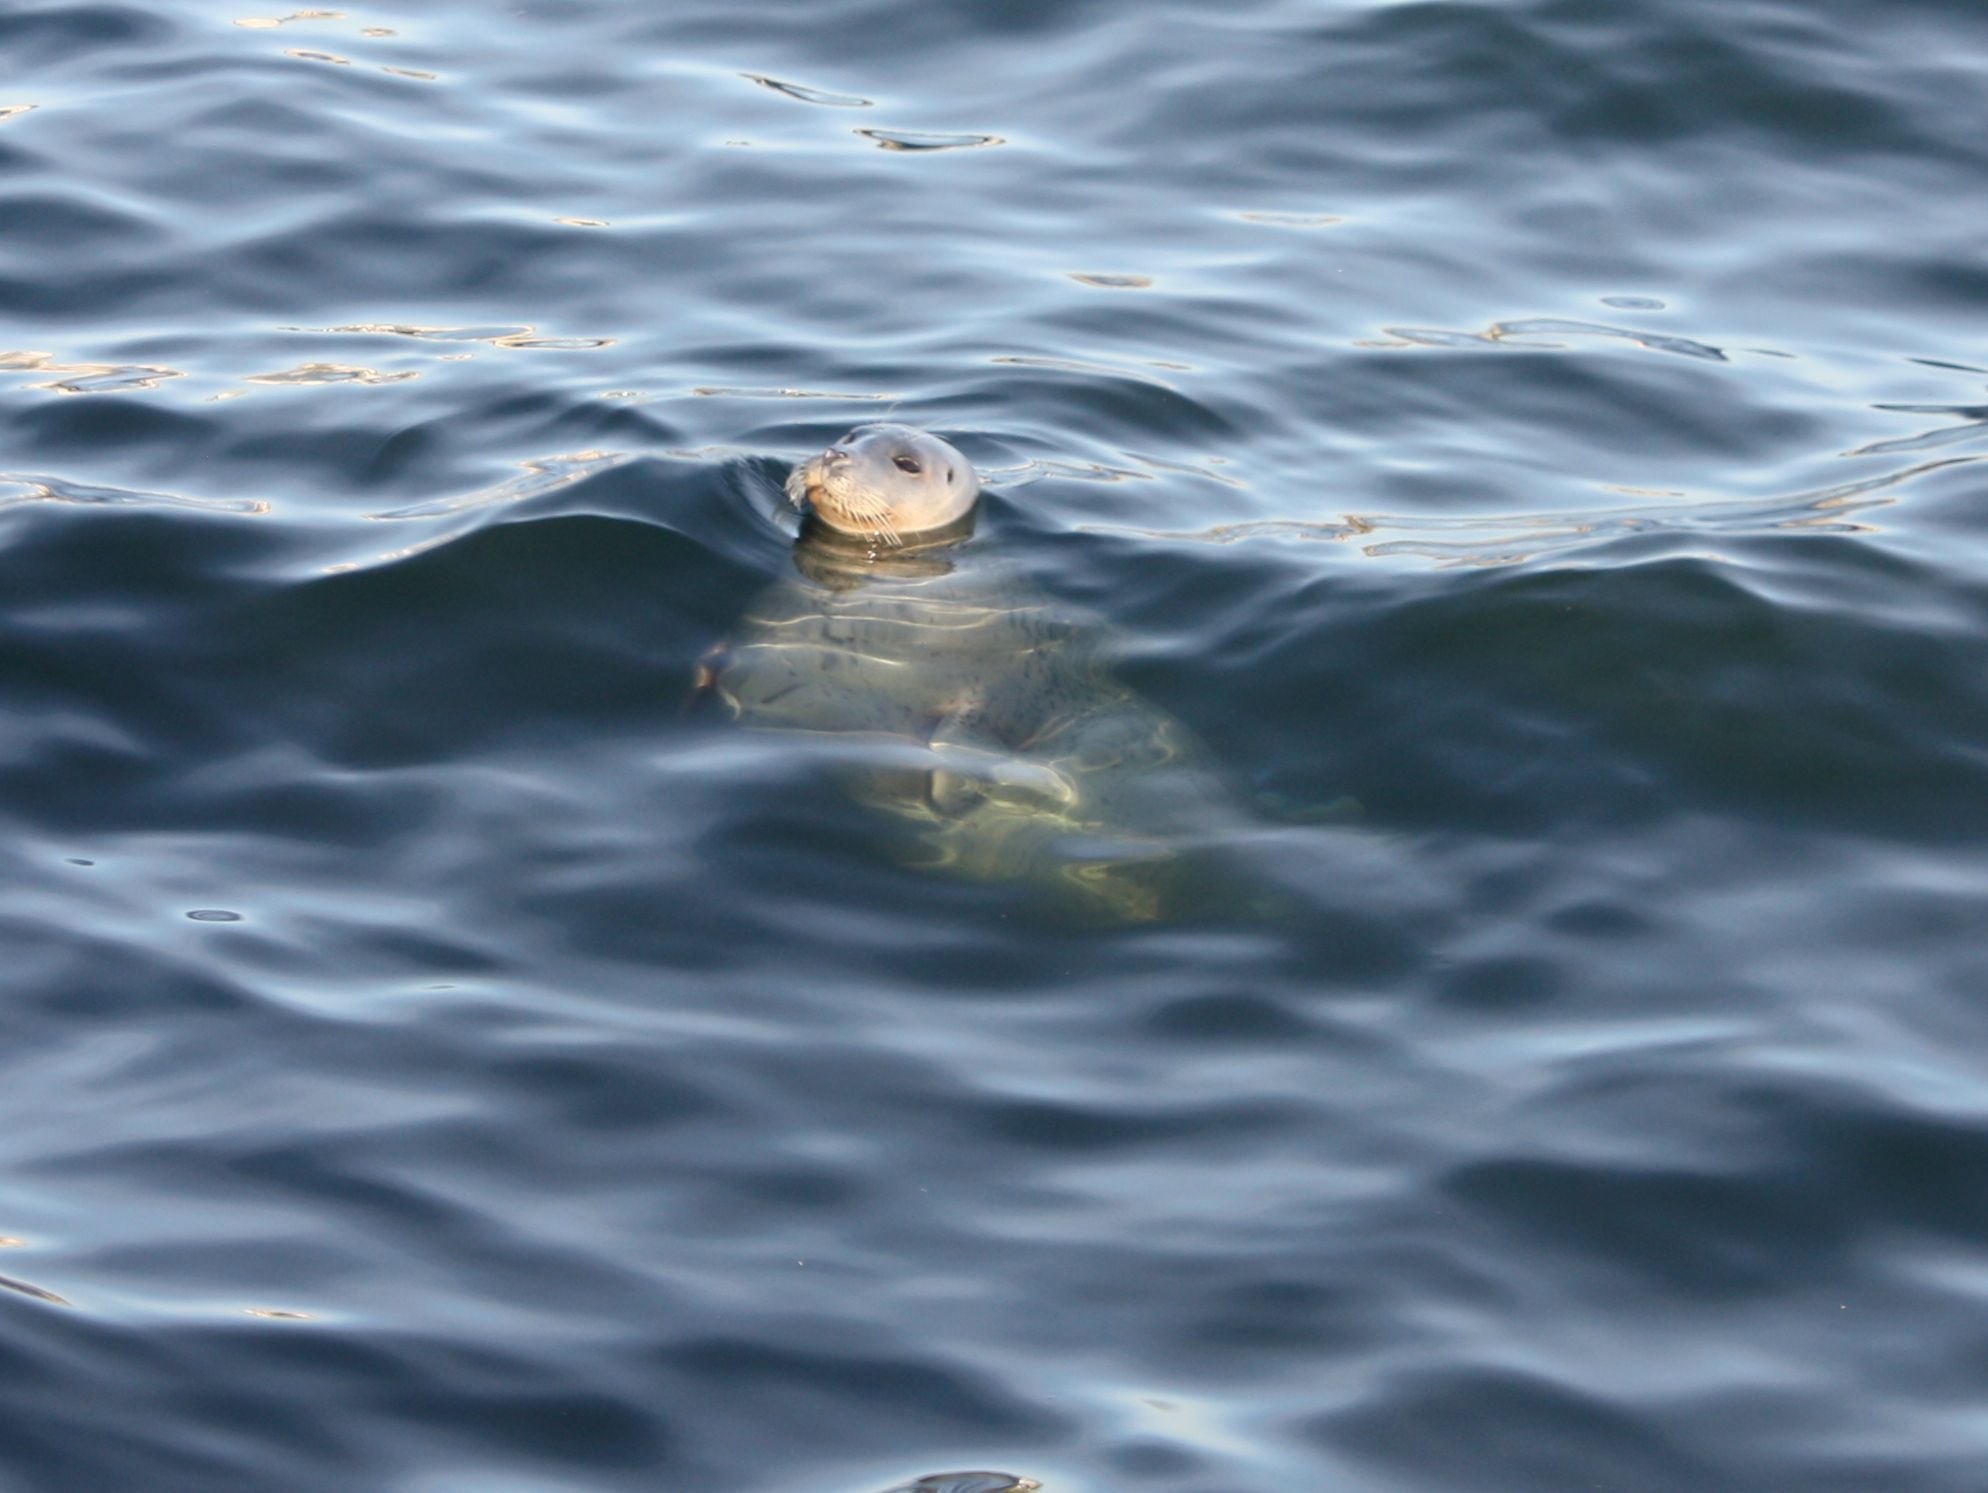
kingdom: Animalia
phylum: Chordata
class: Mammalia
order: Carnivora
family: Phocidae
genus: Phoca
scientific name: Phoca vitulina
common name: Harbor seal
